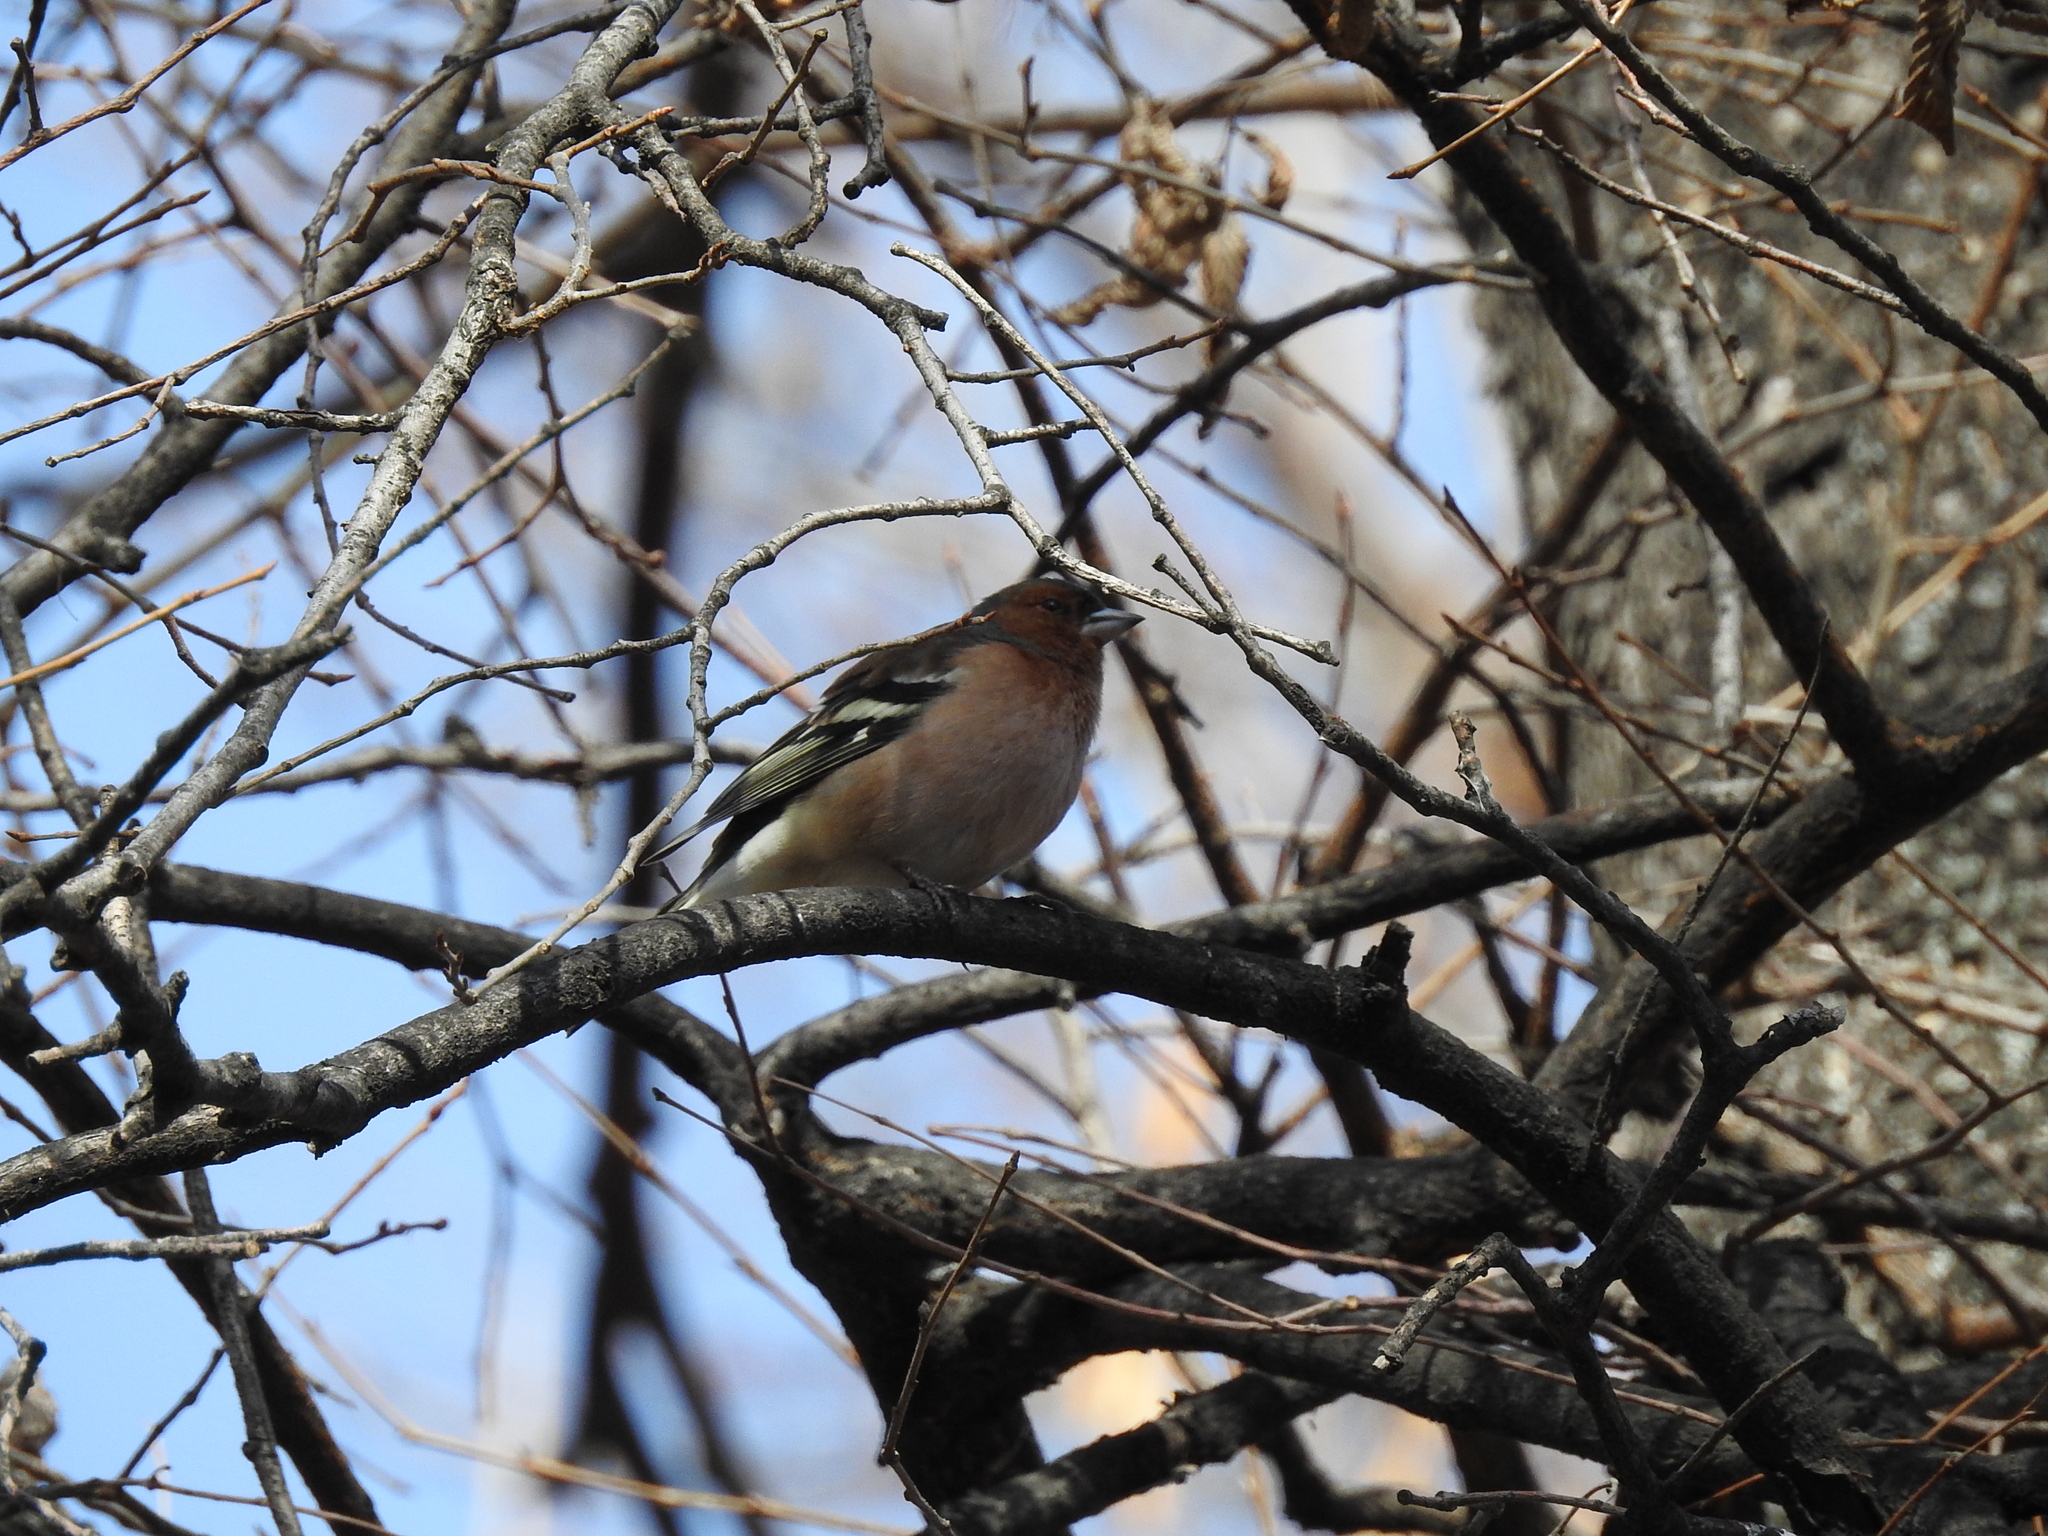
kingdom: Animalia
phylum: Chordata
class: Aves
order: Passeriformes
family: Fringillidae
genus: Fringilla
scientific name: Fringilla coelebs
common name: Common chaffinch
